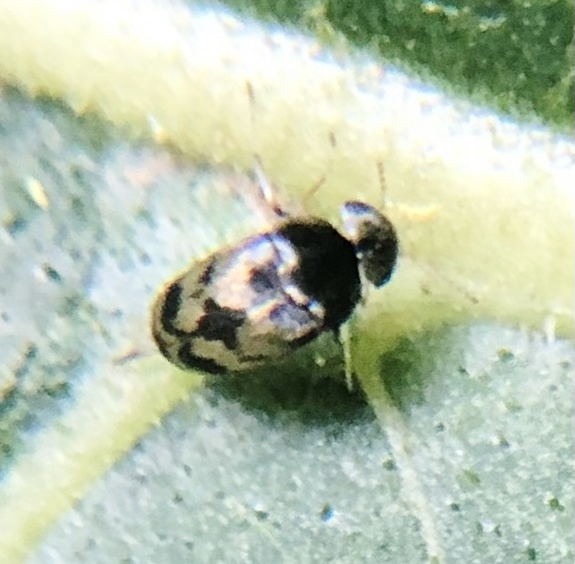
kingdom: Animalia
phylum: Arthropoda
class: Insecta
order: Coleoptera
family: Mordellidae
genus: Paramordellaria
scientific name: Paramordellaria triloba
